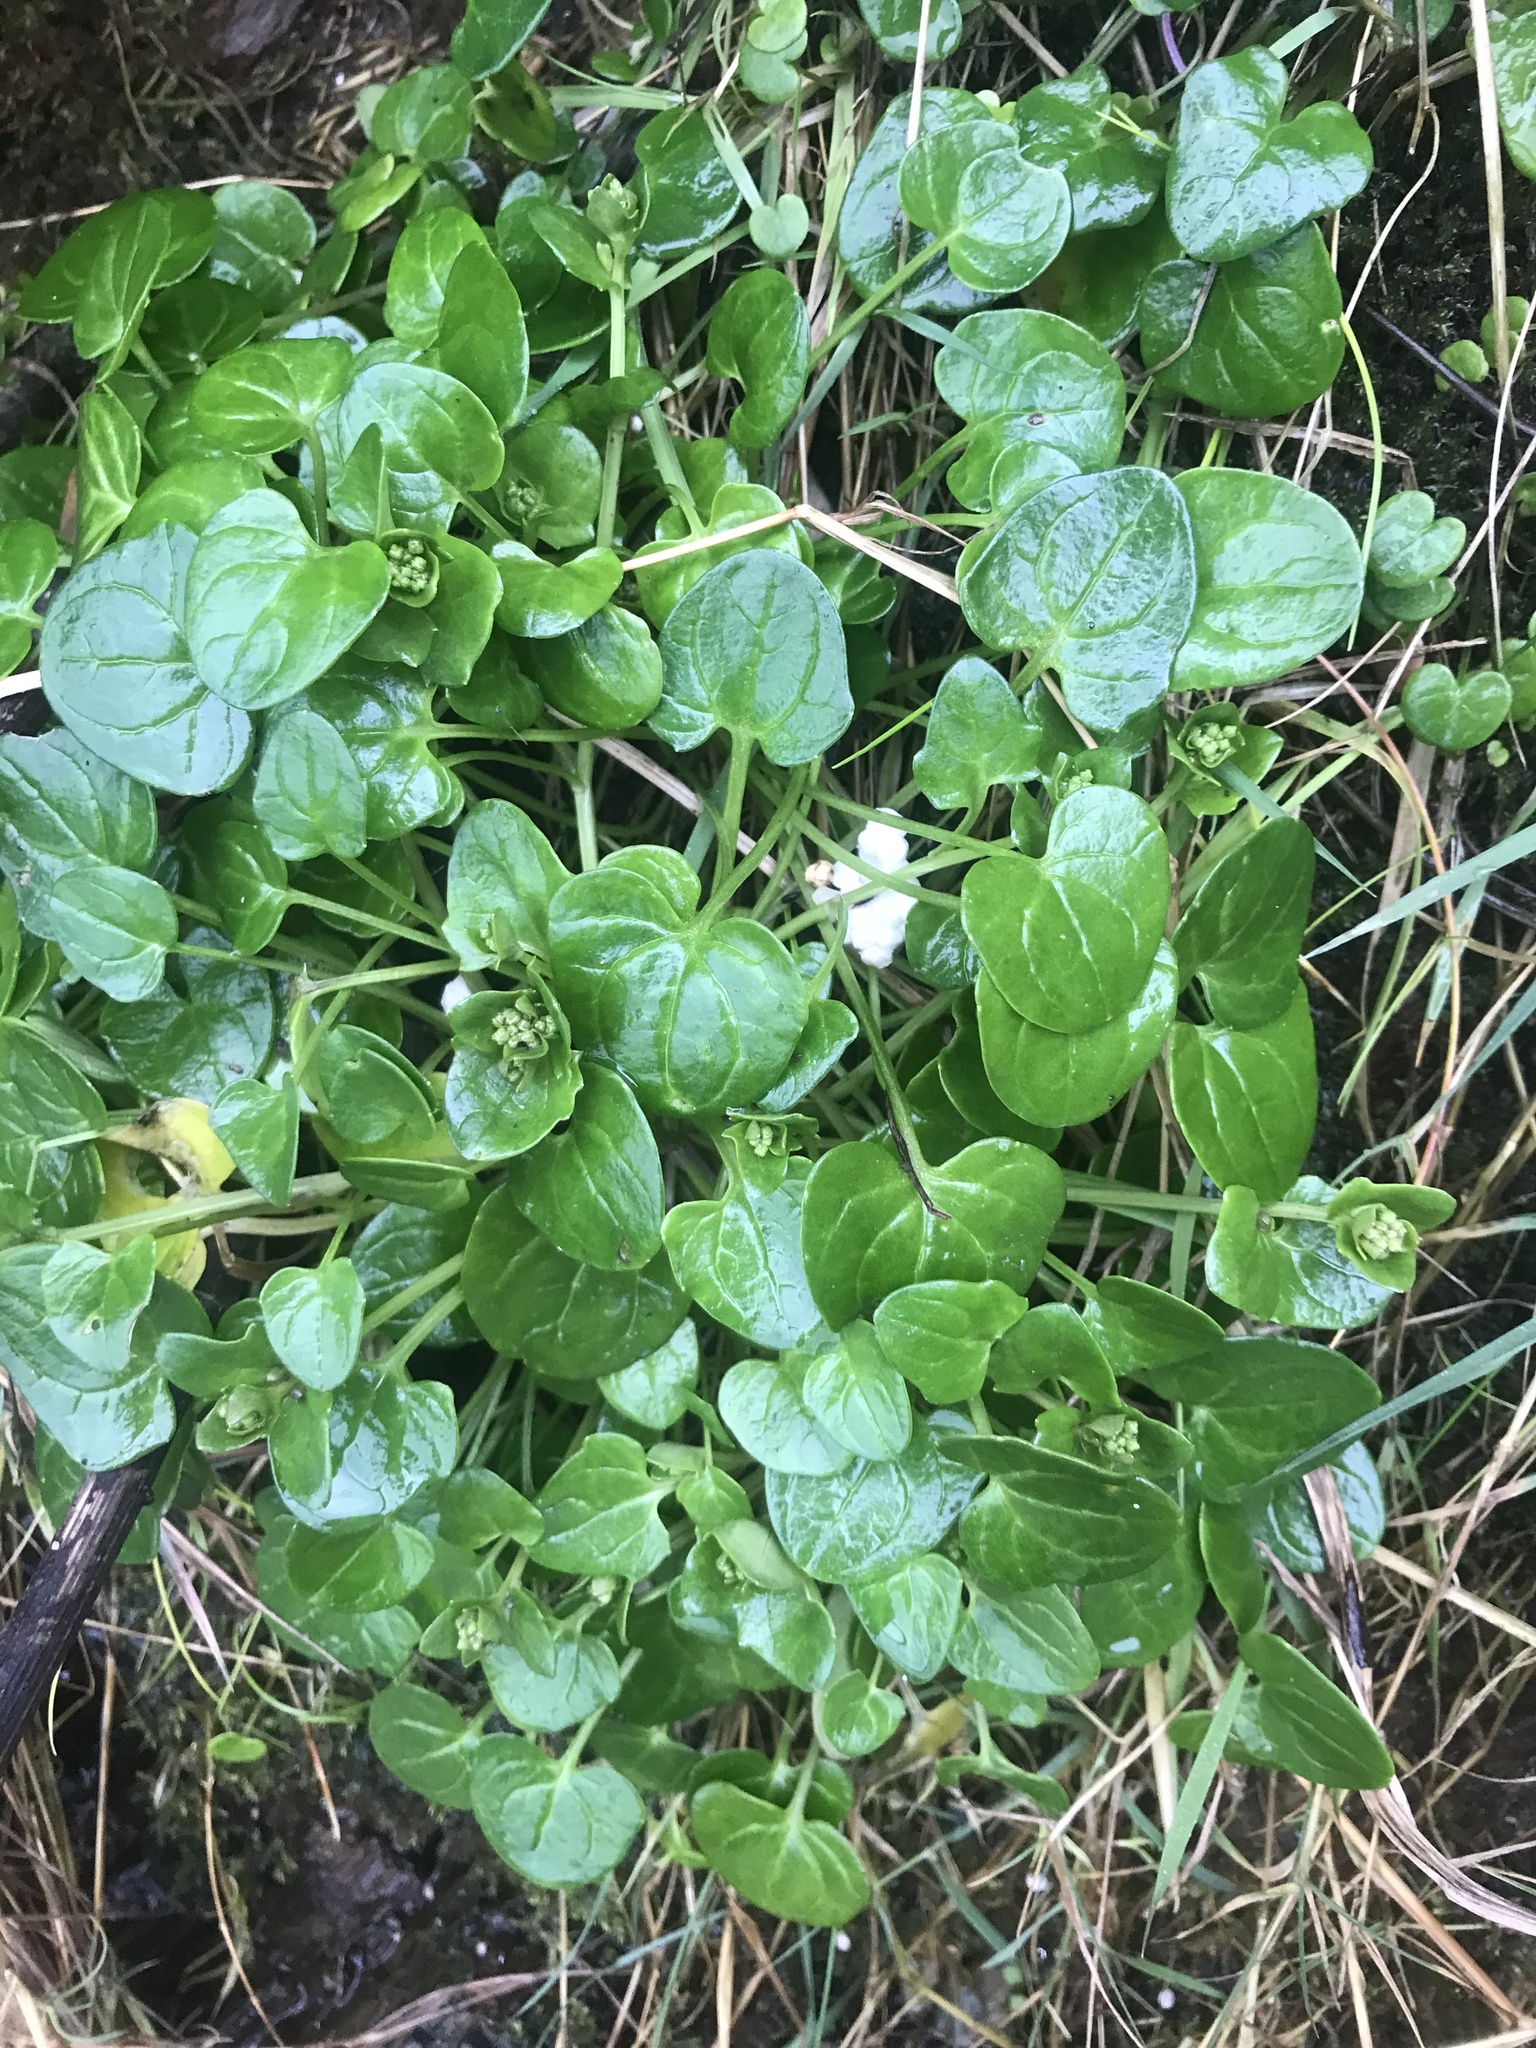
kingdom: Plantae
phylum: Tracheophyta
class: Magnoliopsida
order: Brassicales
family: Brassicaceae
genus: Cochlearia
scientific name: Cochlearia officinalis
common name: Scurvy-grass
